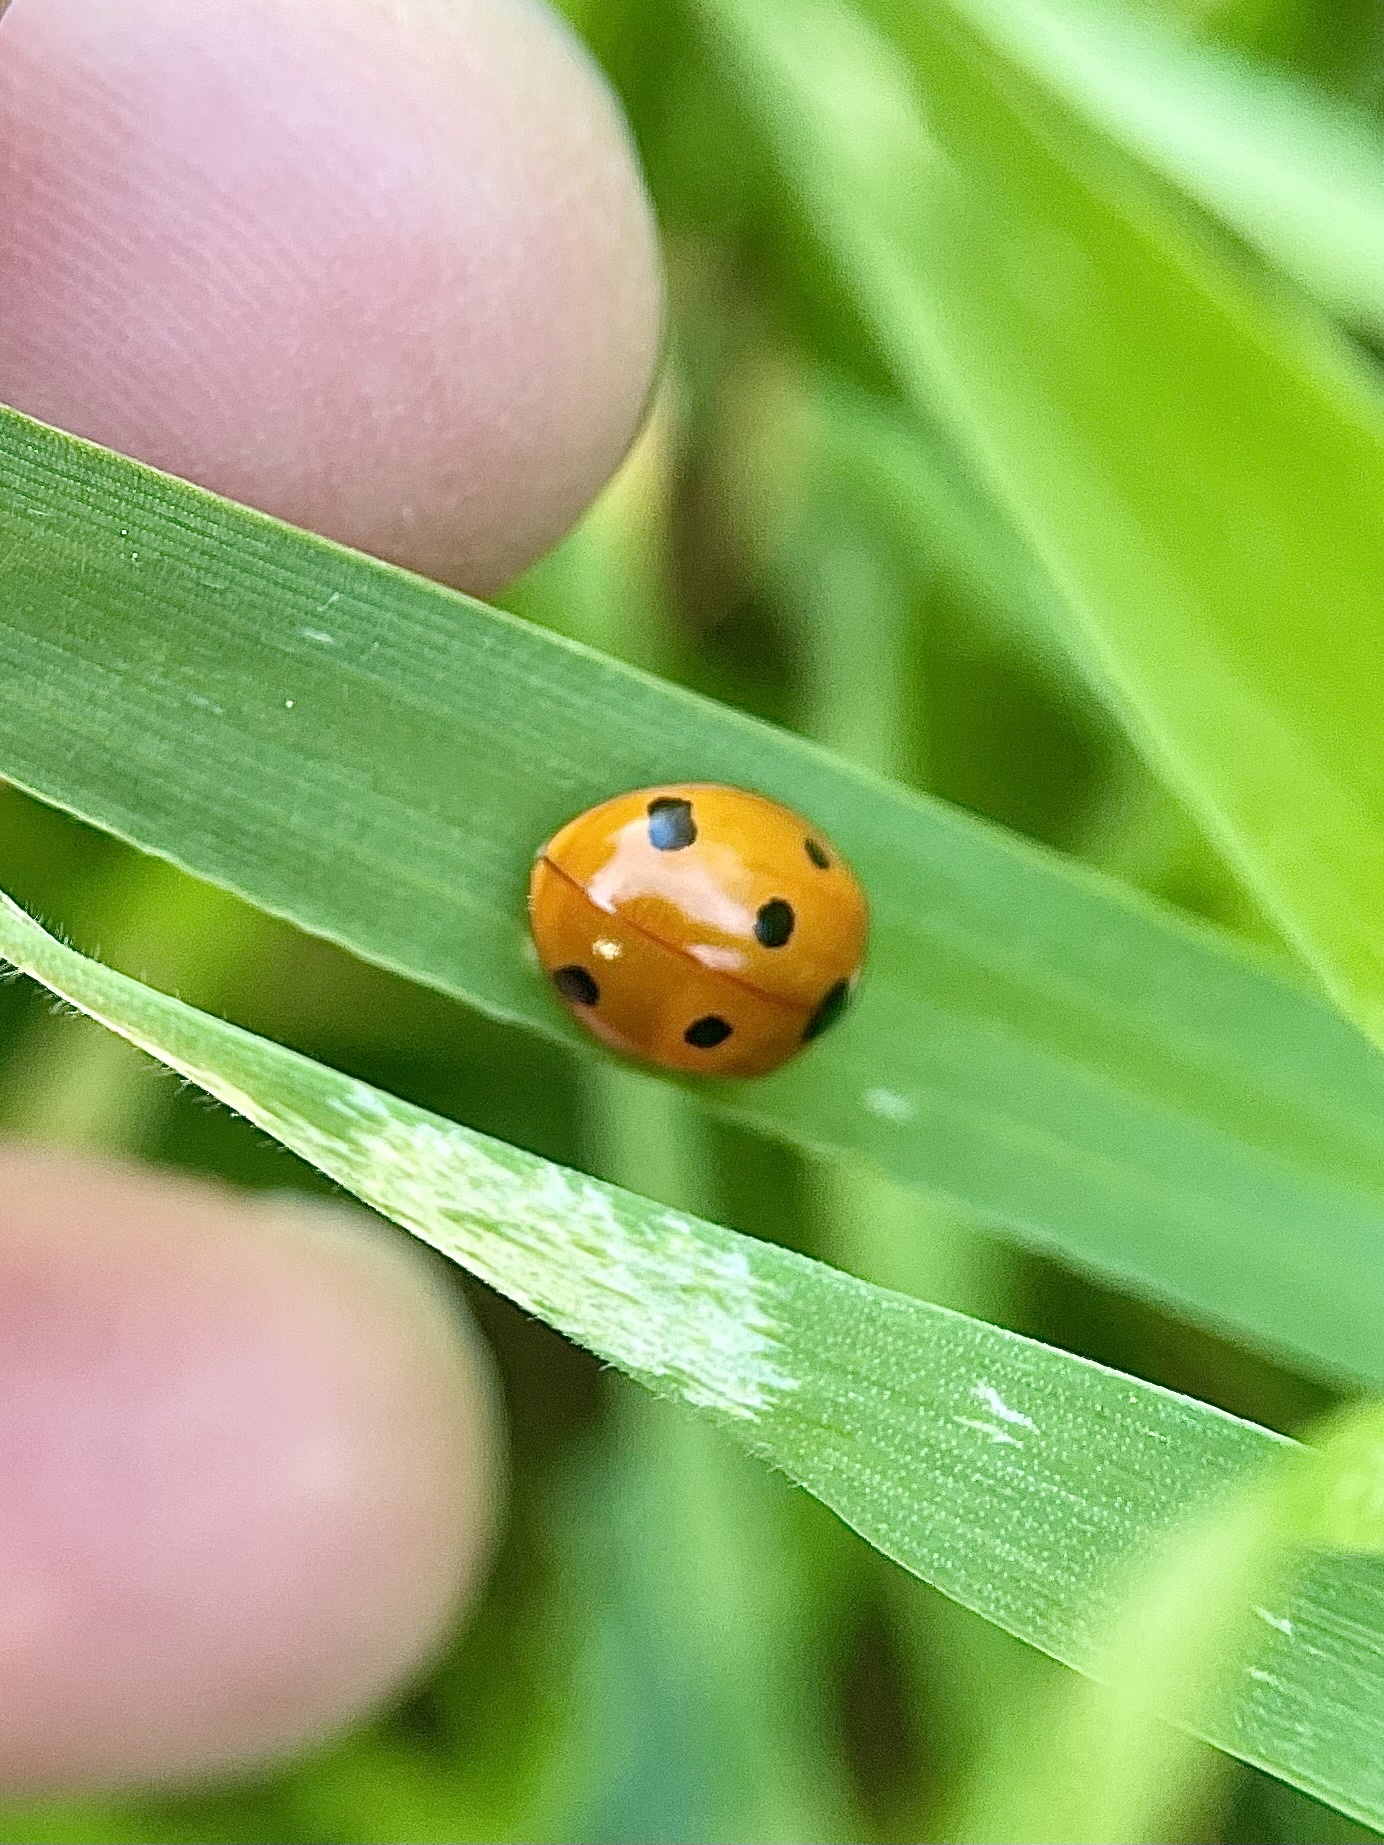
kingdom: Animalia
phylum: Arthropoda
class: Insecta
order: Coleoptera
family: Coccinellidae
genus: Coccinella
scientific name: Coccinella septempunctata
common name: Sevenspotted lady beetle
